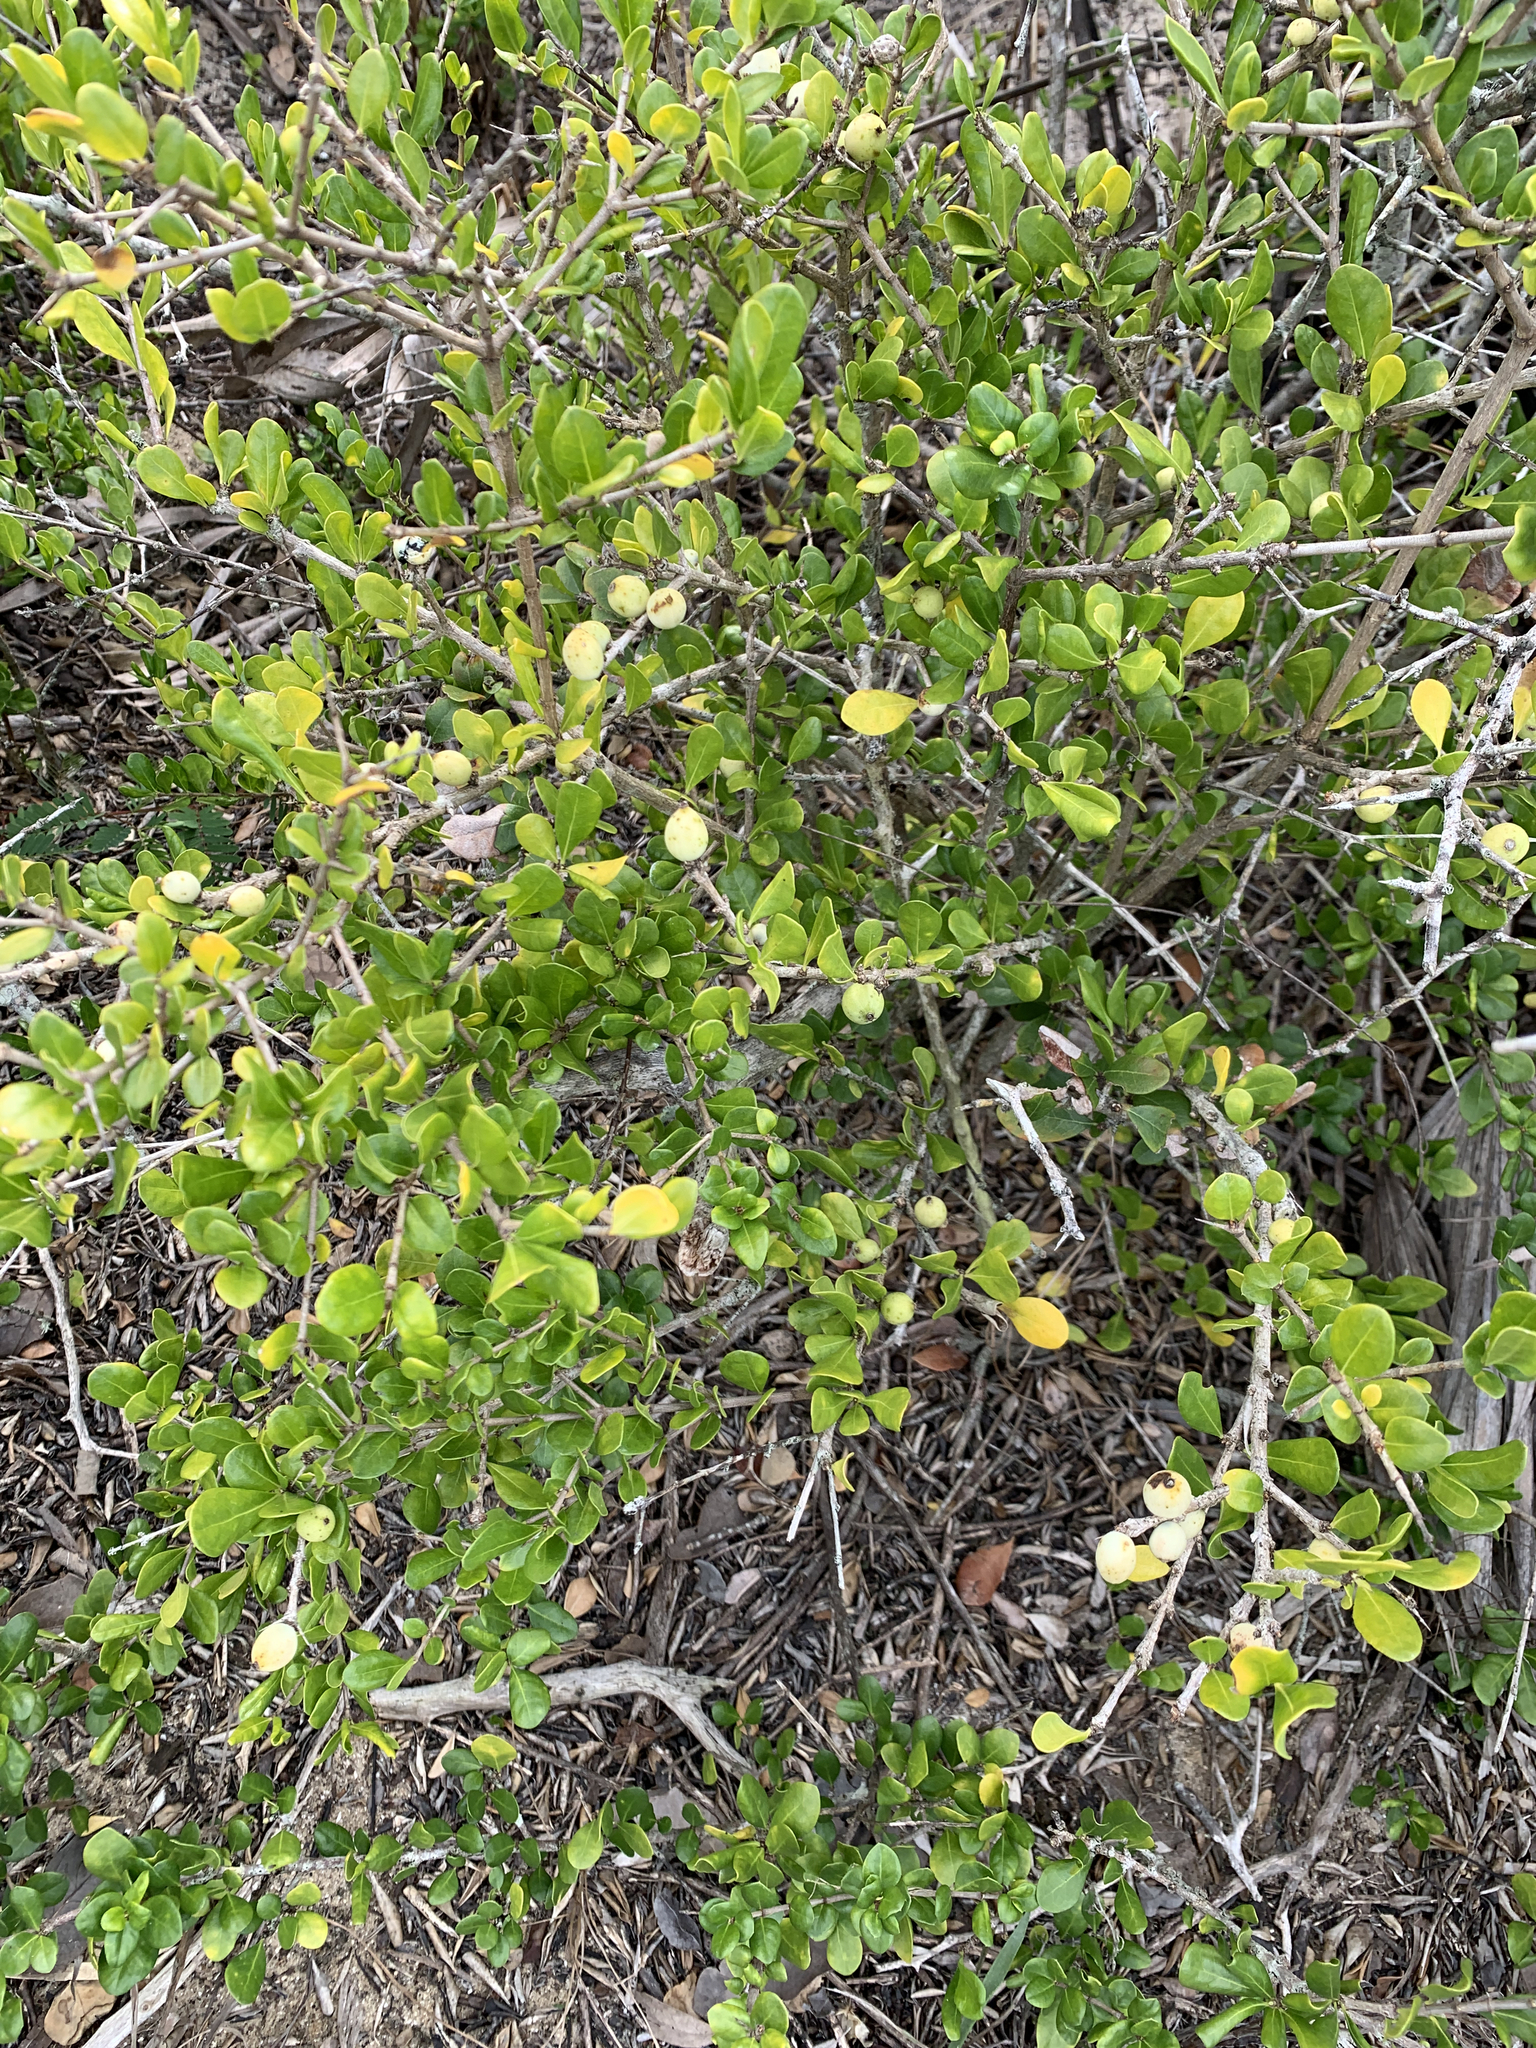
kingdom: Plantae
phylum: Tracheophyta
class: Magnoliopsida
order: Gentianales
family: Rubiaceae
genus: Randia
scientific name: Randia aculeata
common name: Inkberry
